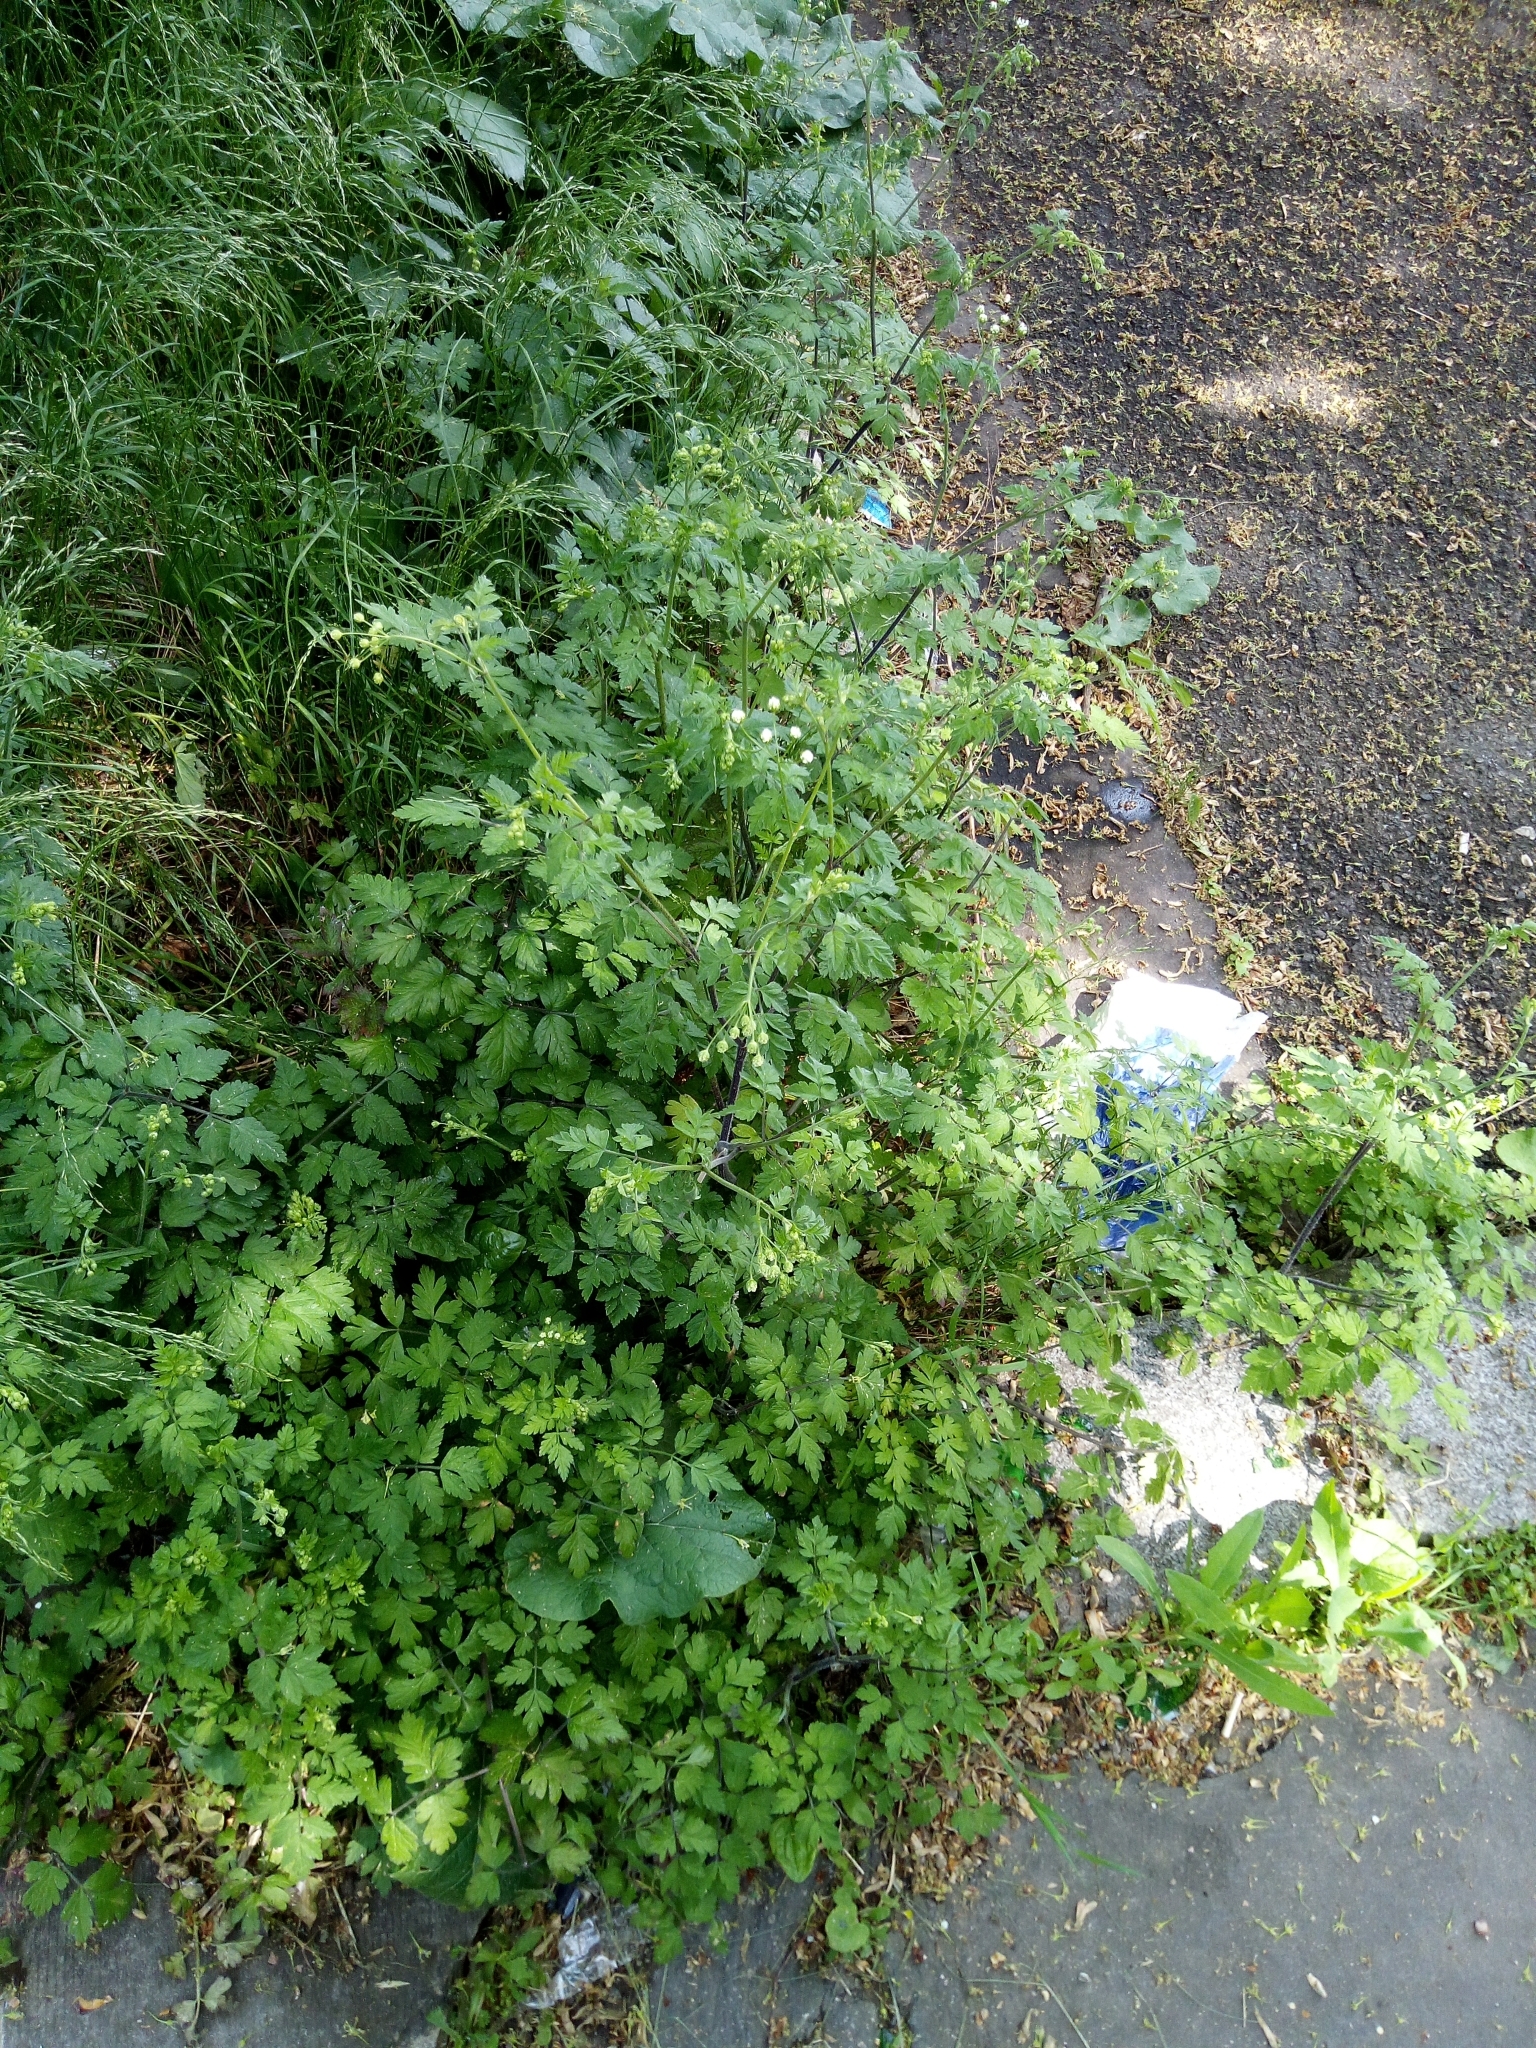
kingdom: Plantae
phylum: Tracheophyta
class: Magnoliopsida
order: Apiales
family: Apiaceae
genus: Chaerophyllum
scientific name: Chaerophyllum temulum
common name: Rough chervil
